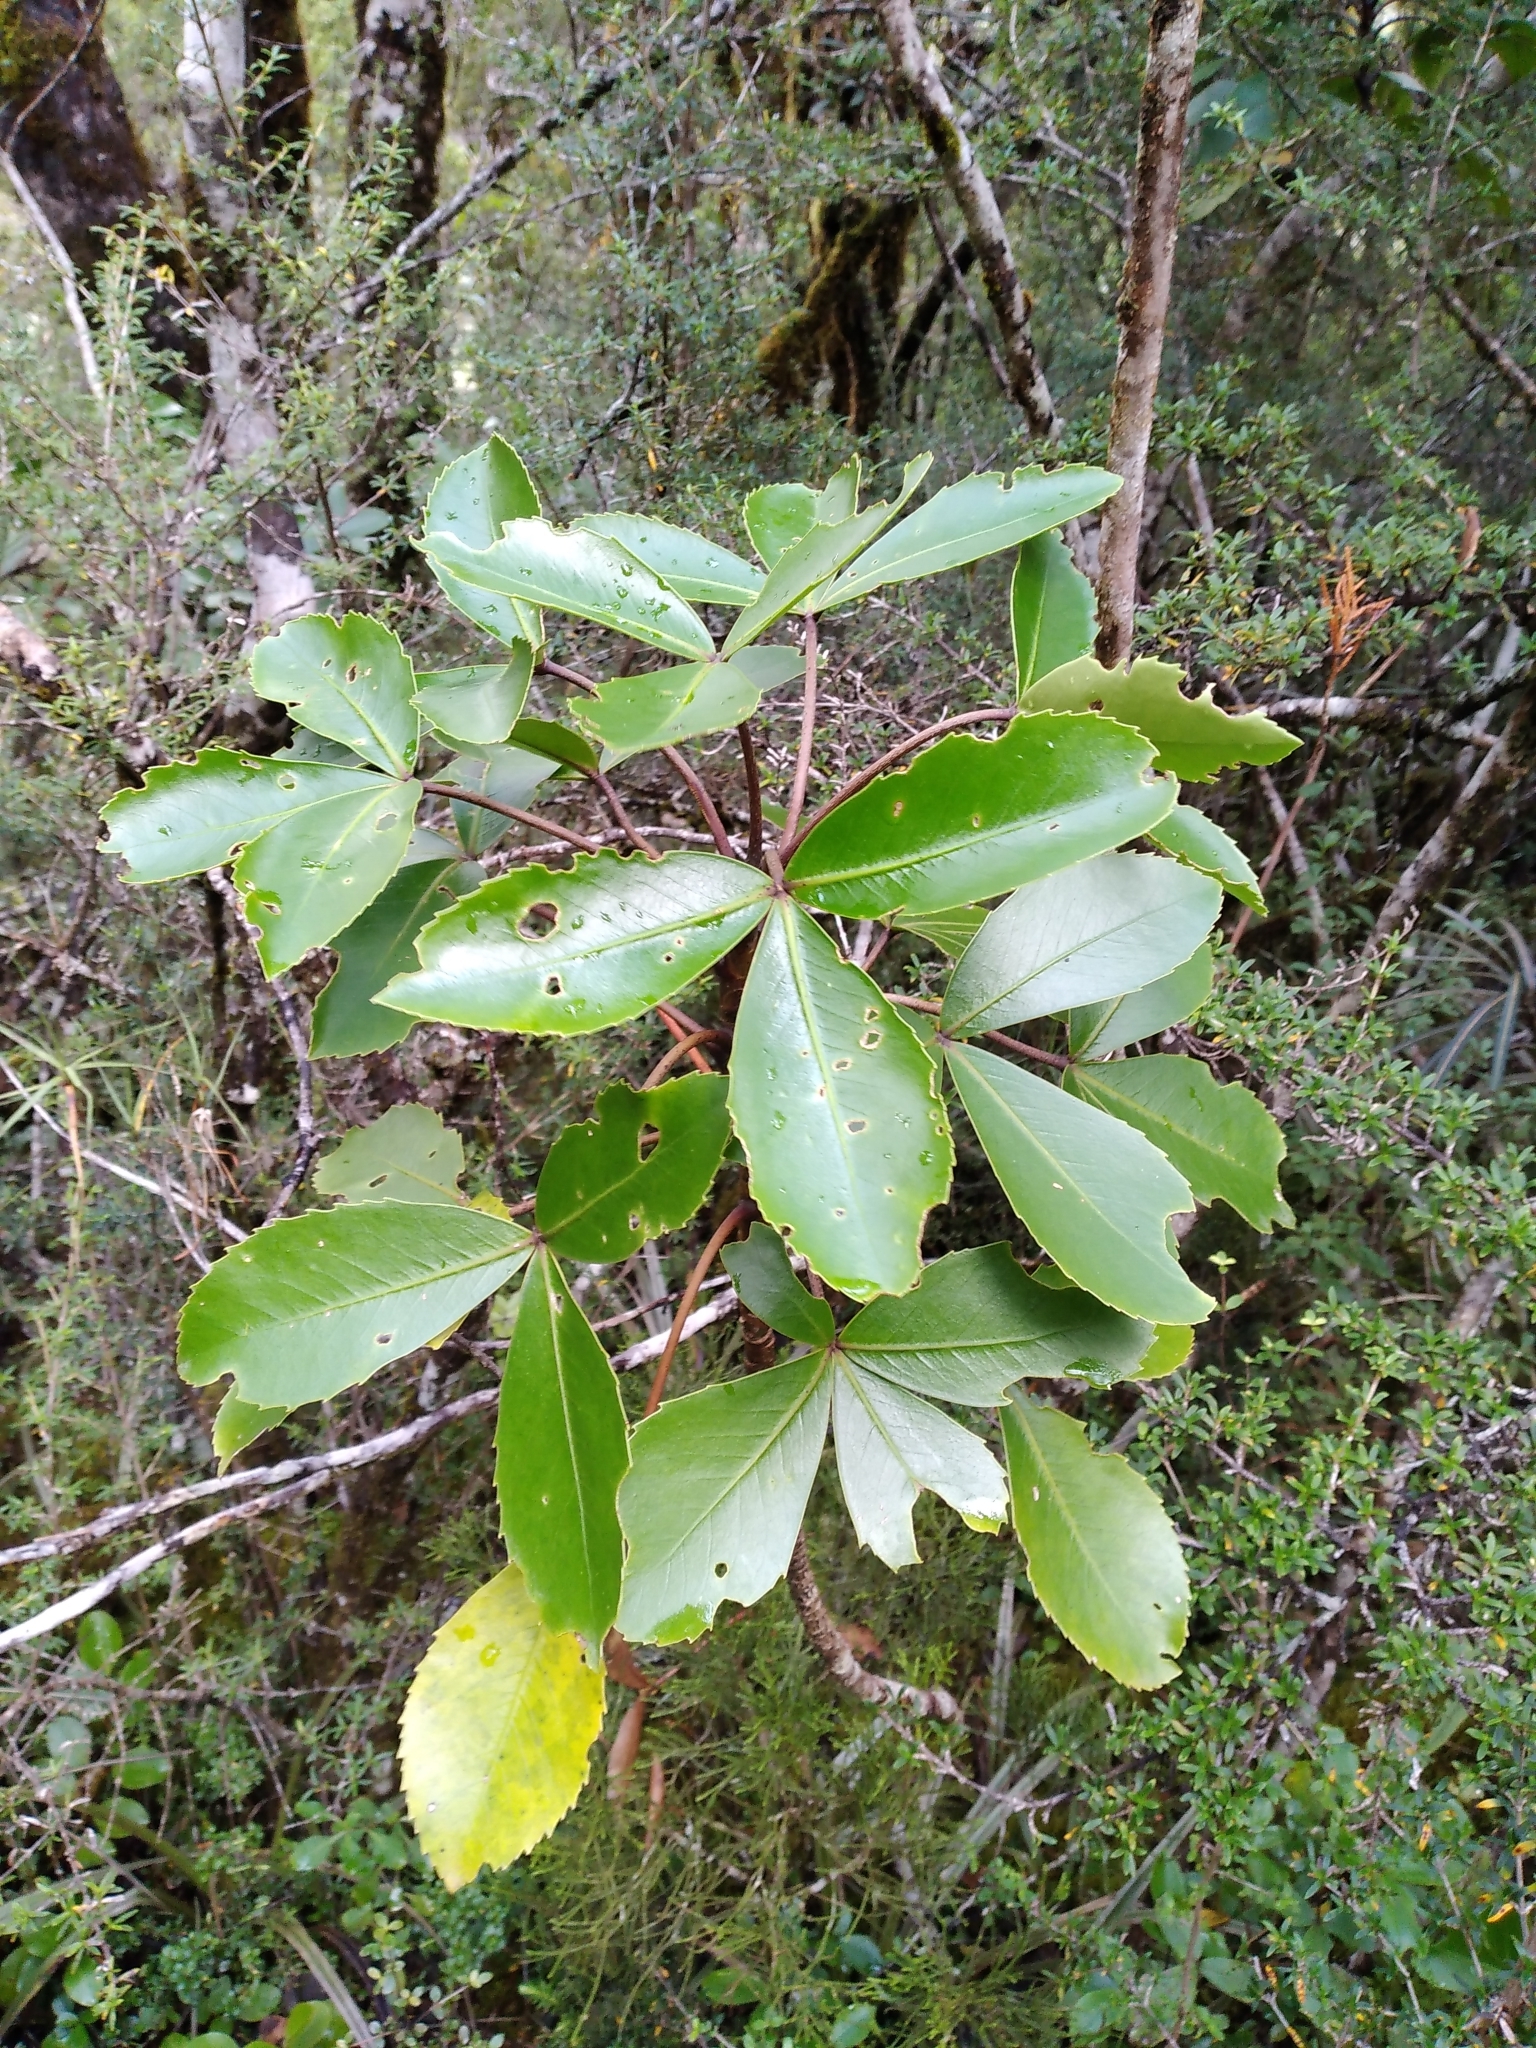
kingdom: Plantae
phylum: Tracheophyta
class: Magnoliopsida
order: Apiales
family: Araliaceae
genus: Neopanax
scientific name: Neopanax colensoi
